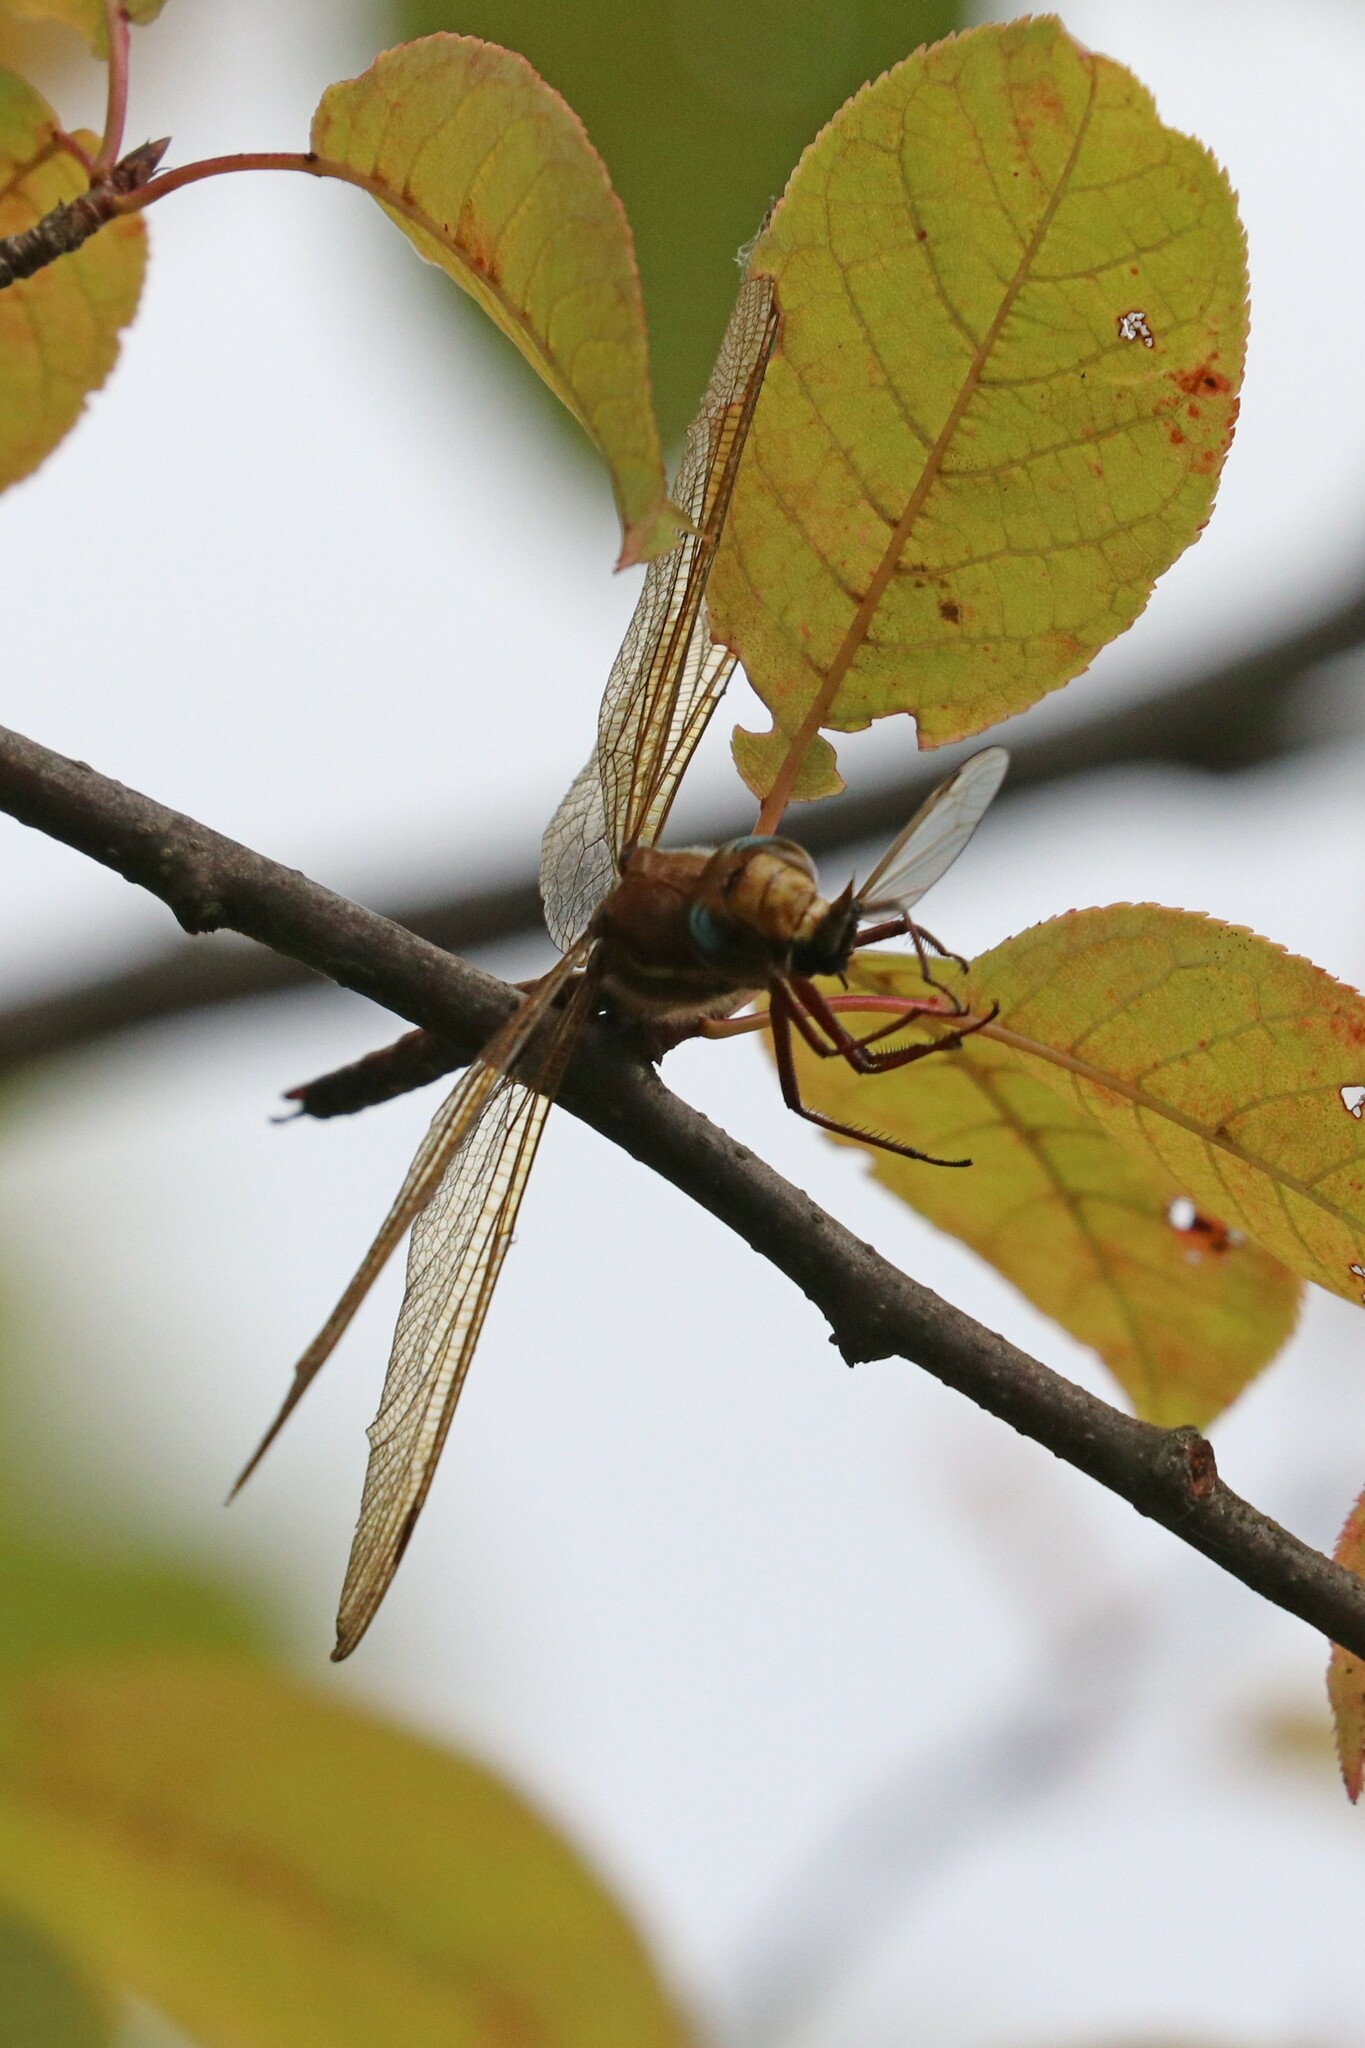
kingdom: Animalia
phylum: Arthropoda
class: Insecta
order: Odonata
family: Aeshnidae
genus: Aeshna
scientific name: Aeshna grandis
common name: Brown hawker
